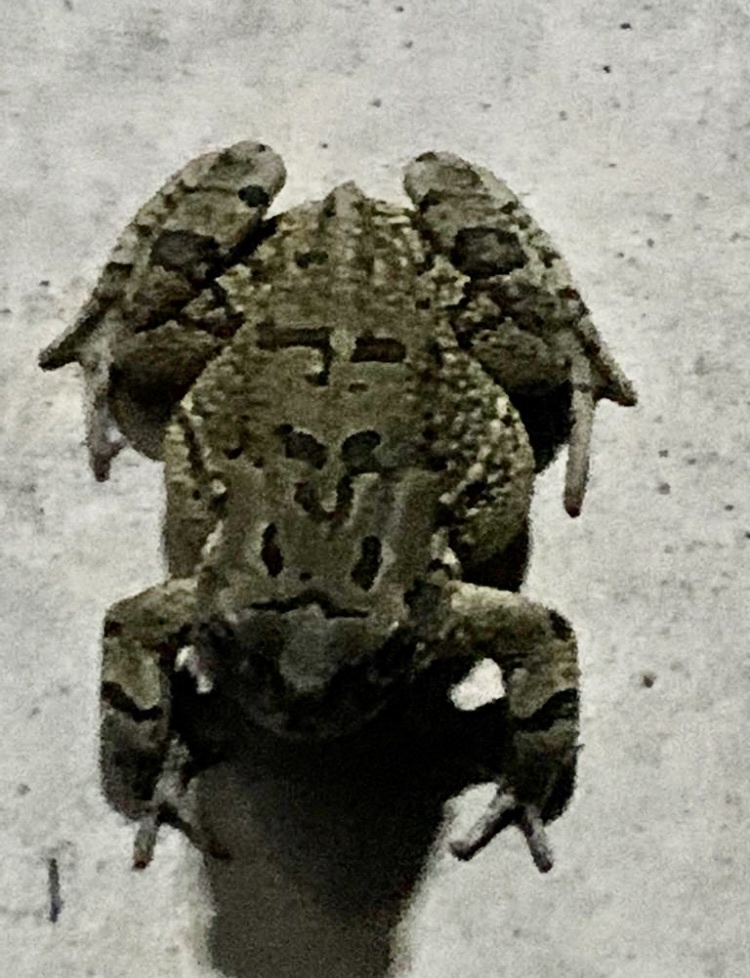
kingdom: Animalia
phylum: Chordata
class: Amphibia
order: Anura
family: Bufonidae
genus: Sclerophrys
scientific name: Sclerophrys capensis
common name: Ranger’s toad
